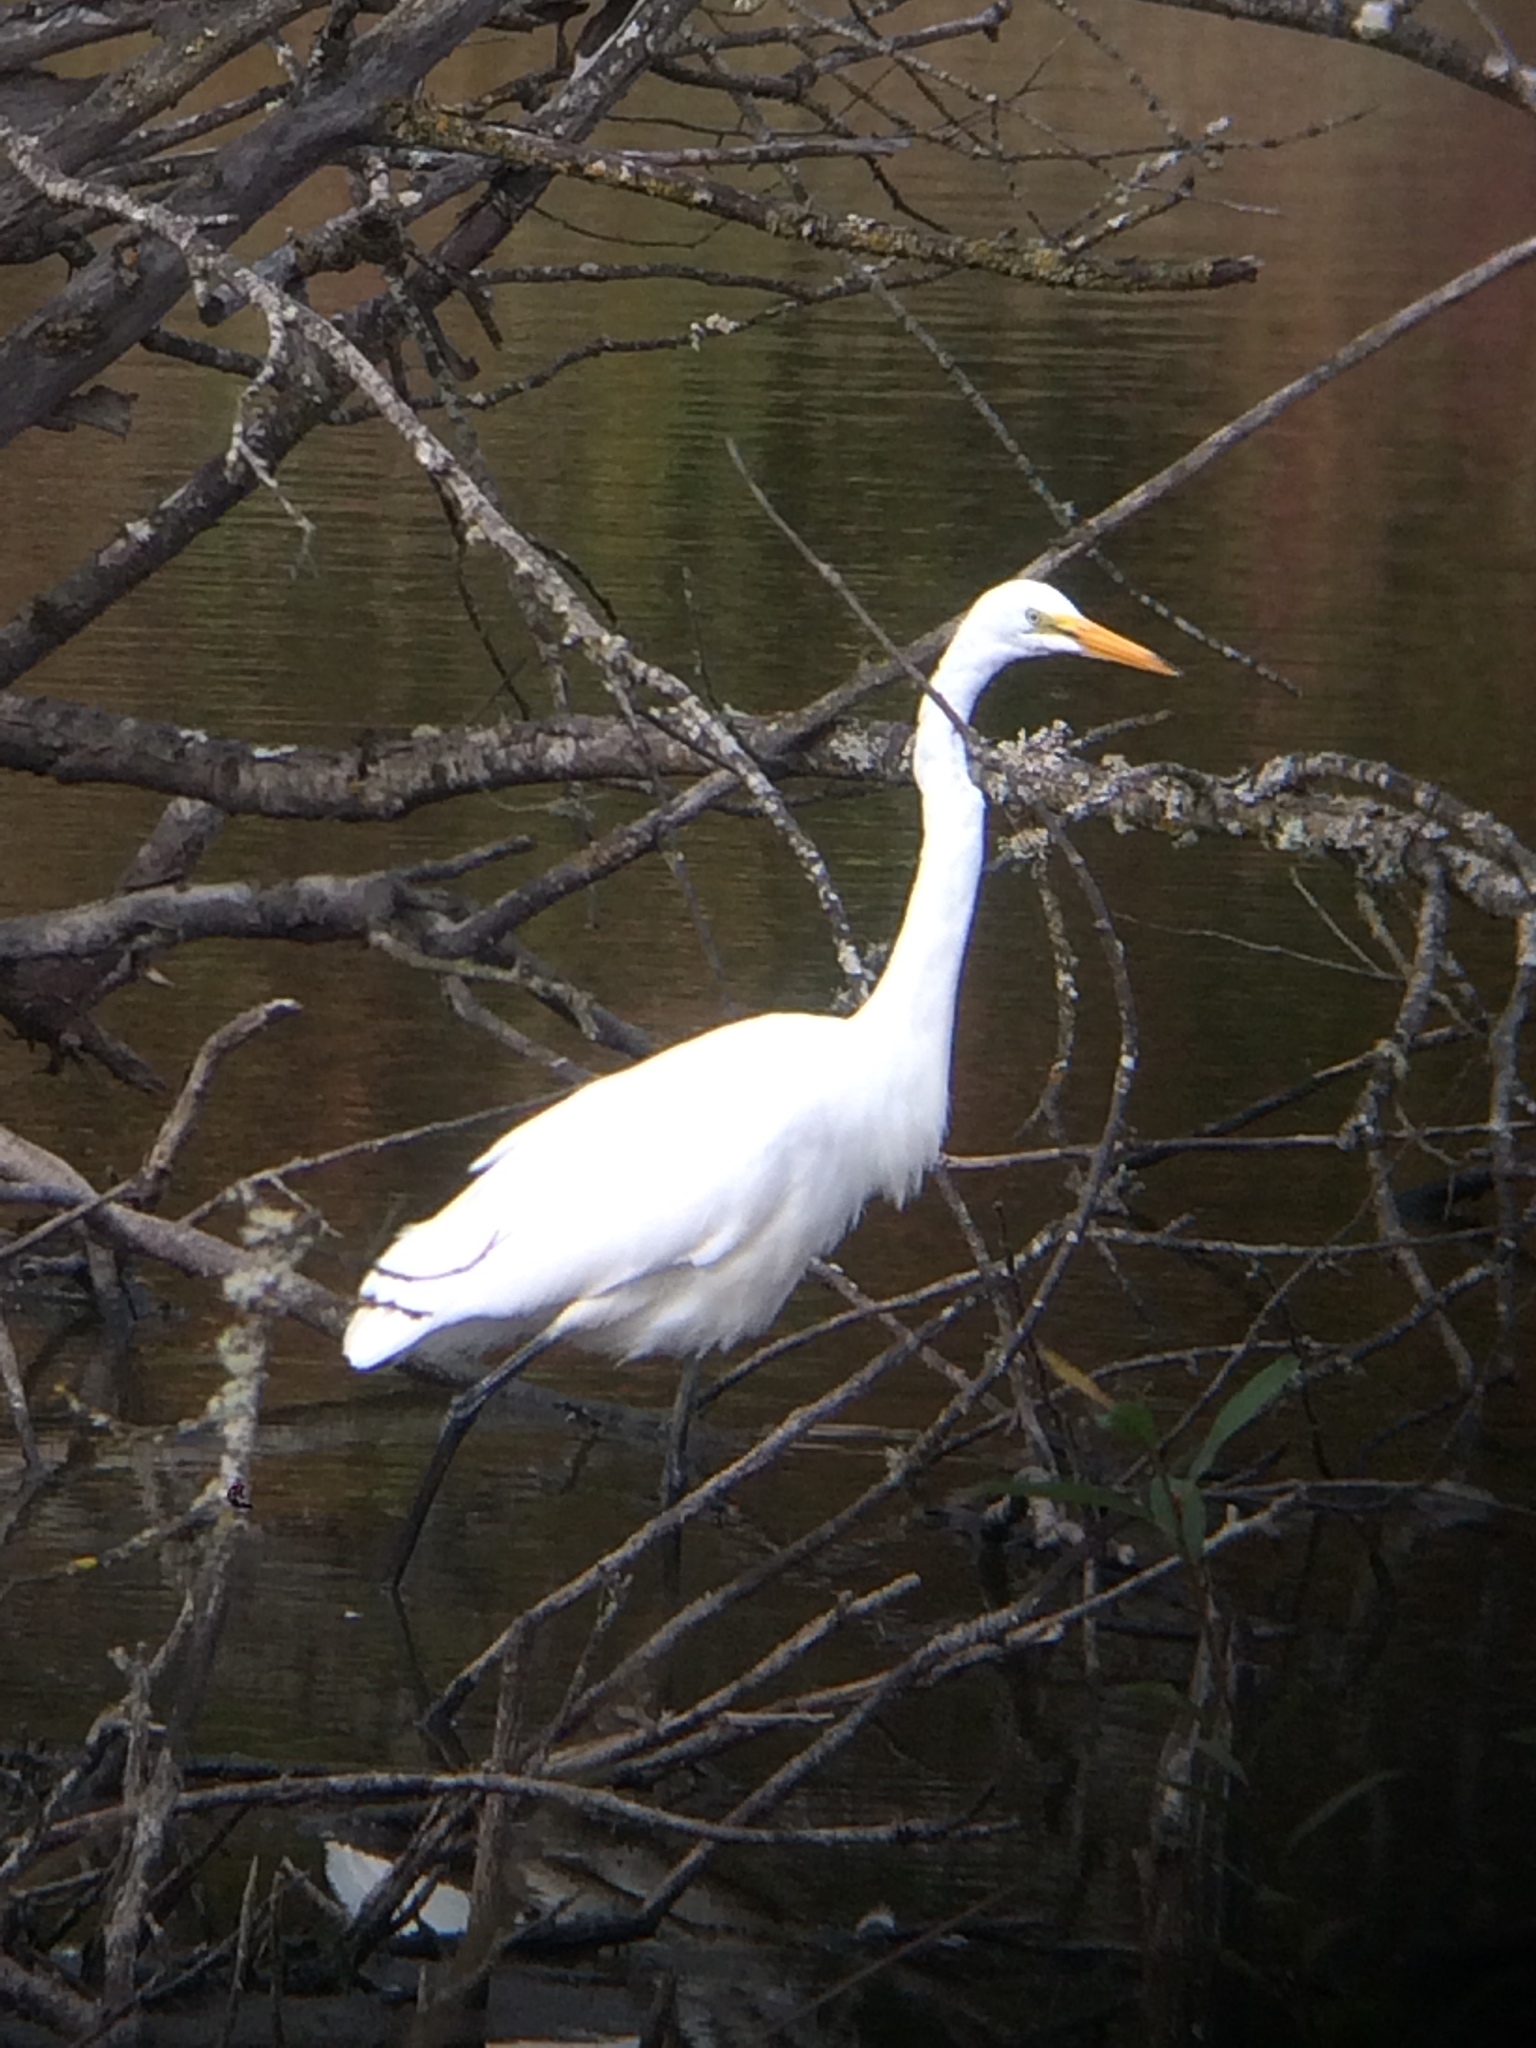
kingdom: Animalia
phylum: Chordata
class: Aves
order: Pelecaniformes
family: Ardeidae
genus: Ardea
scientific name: Ardea alba
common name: Great egret
